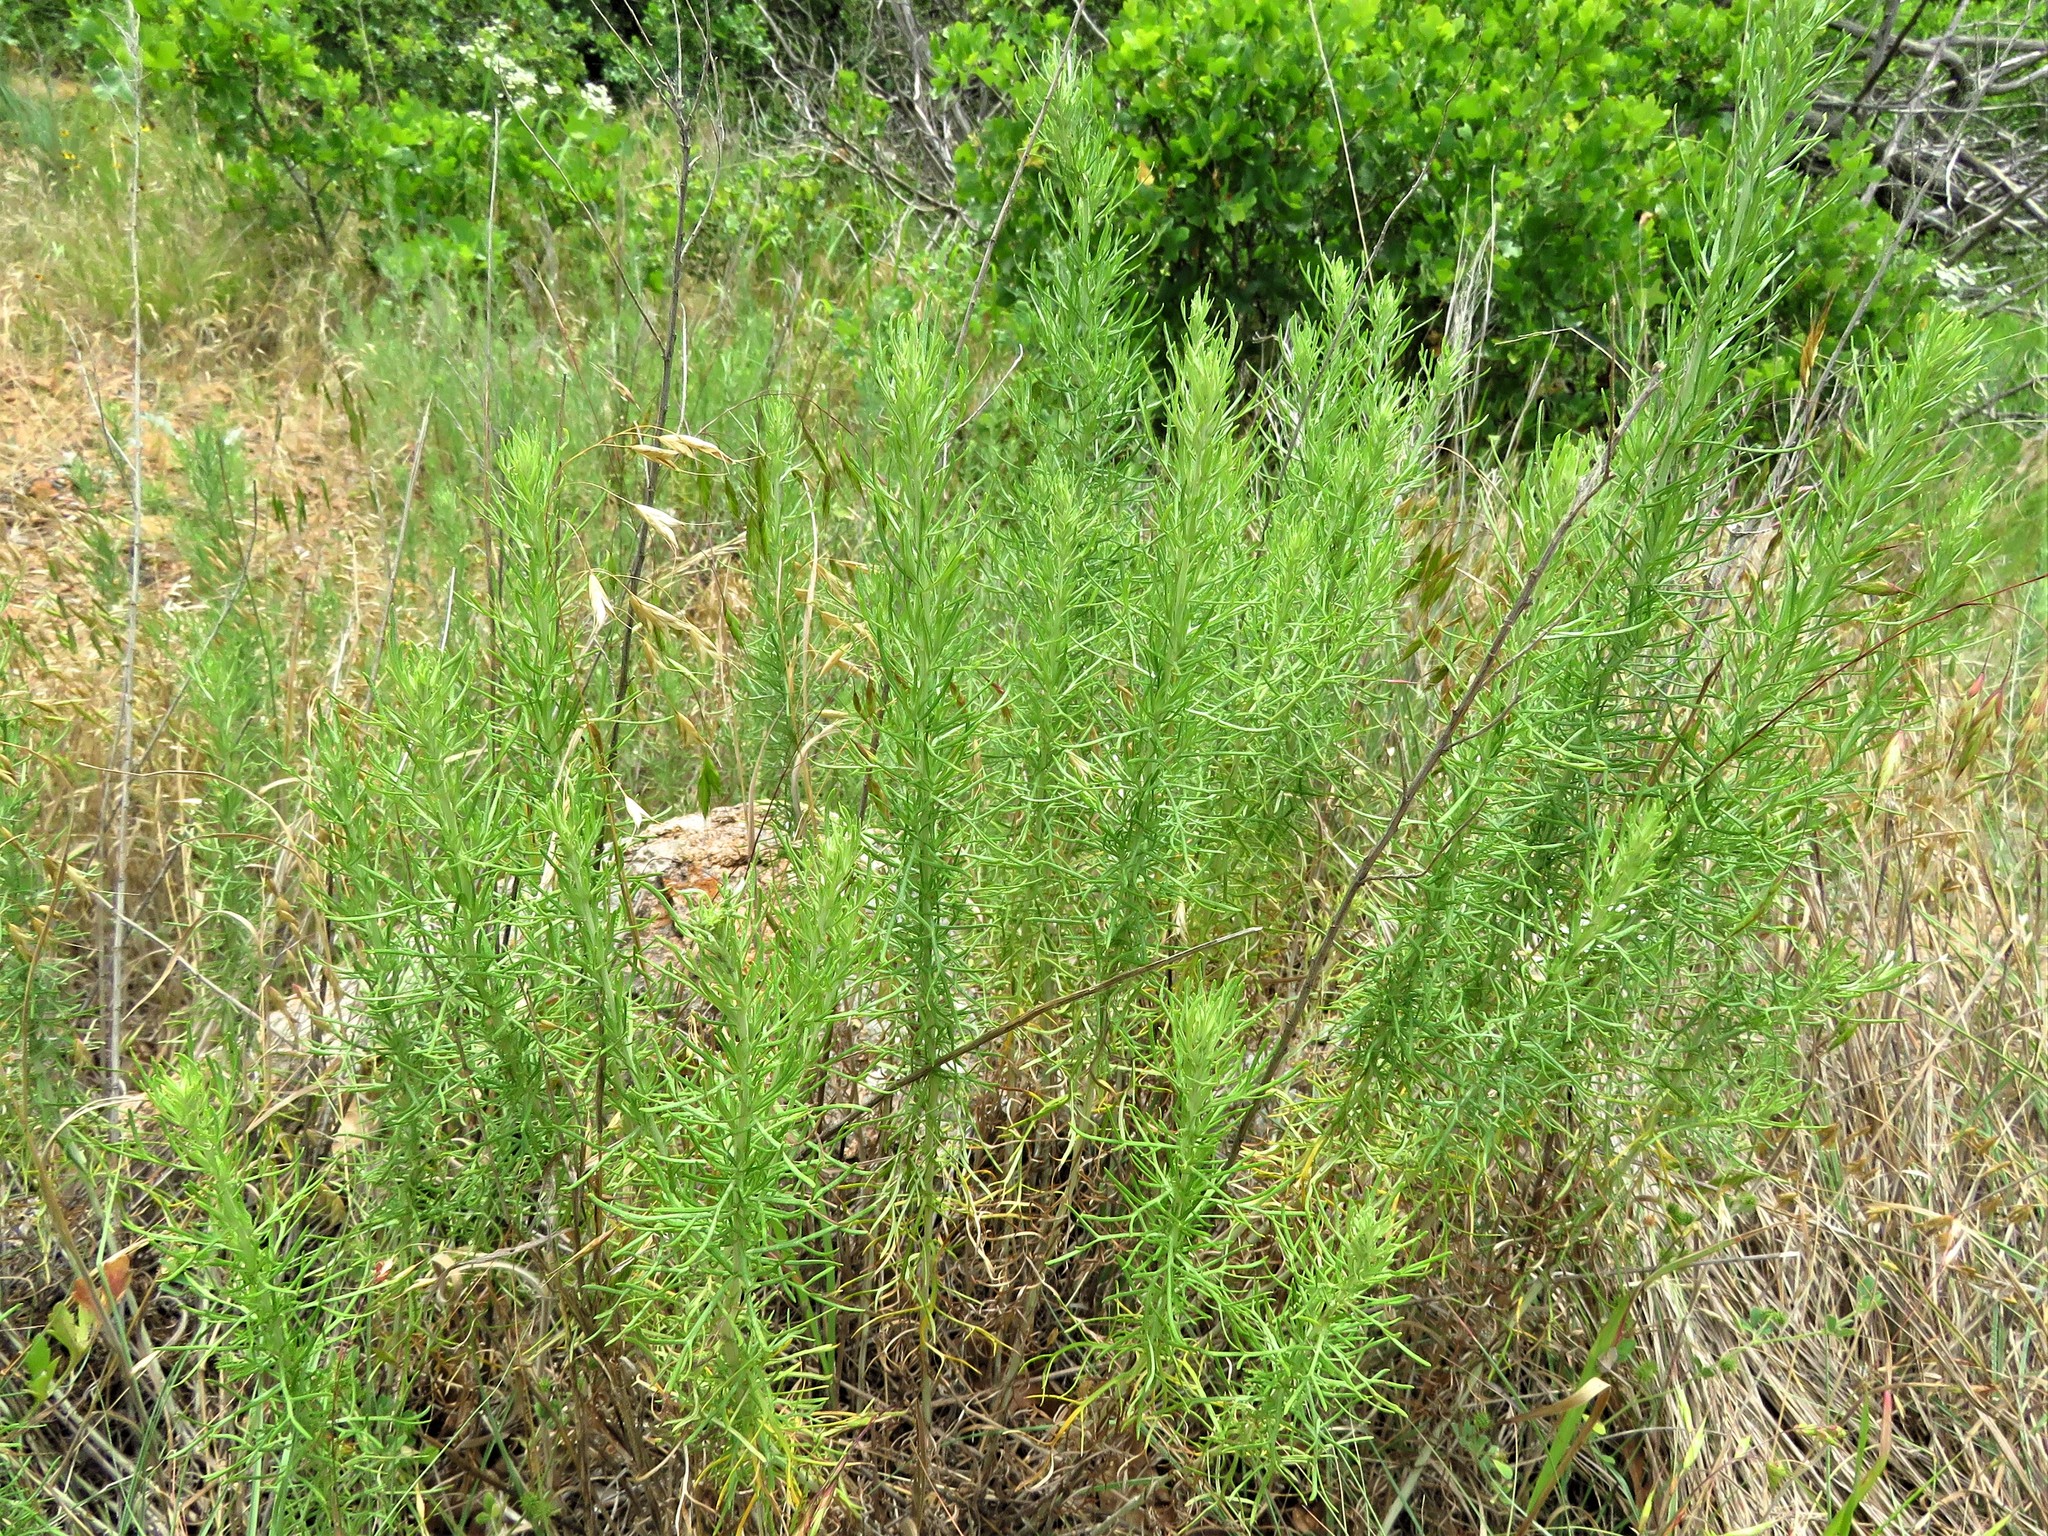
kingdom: Plantae
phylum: Tracheophyta
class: Magnoliopsida
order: Asterales
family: Asteraceae
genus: Eupatorium
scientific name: Eupatorium capillifolium
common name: Dog-fennel
